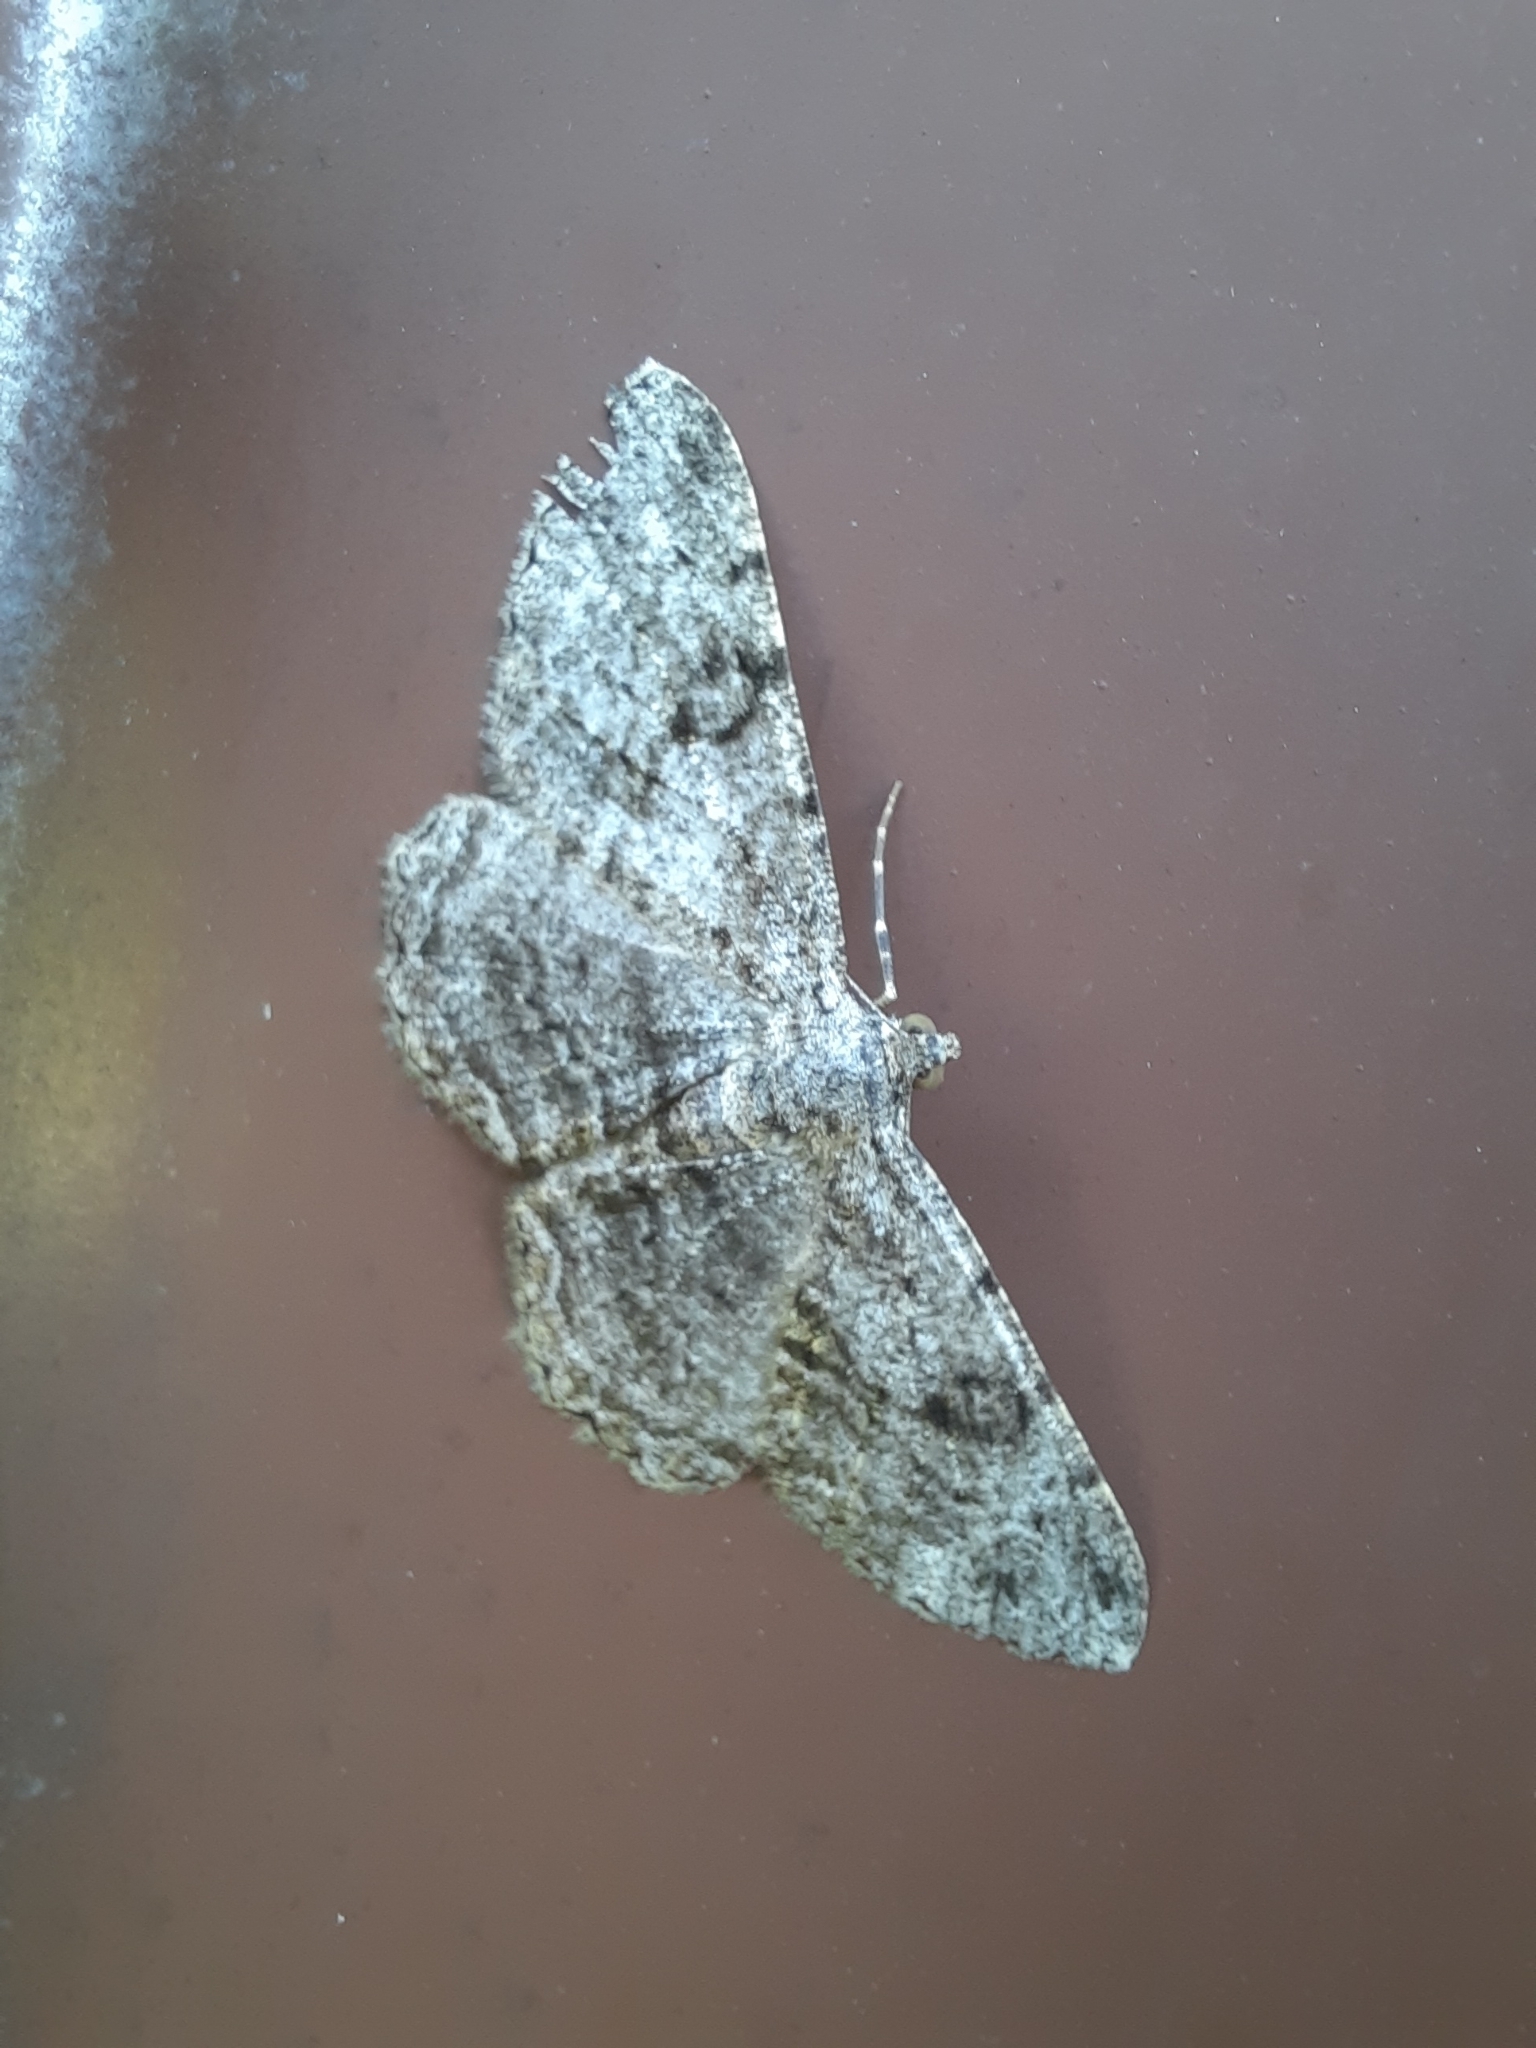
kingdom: Animalia
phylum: Arthropoda
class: Insecta
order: Lepidoptera
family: Geometridae
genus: Peribatodes
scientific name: Peribatodes rhomboidaria
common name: Willow beauty
